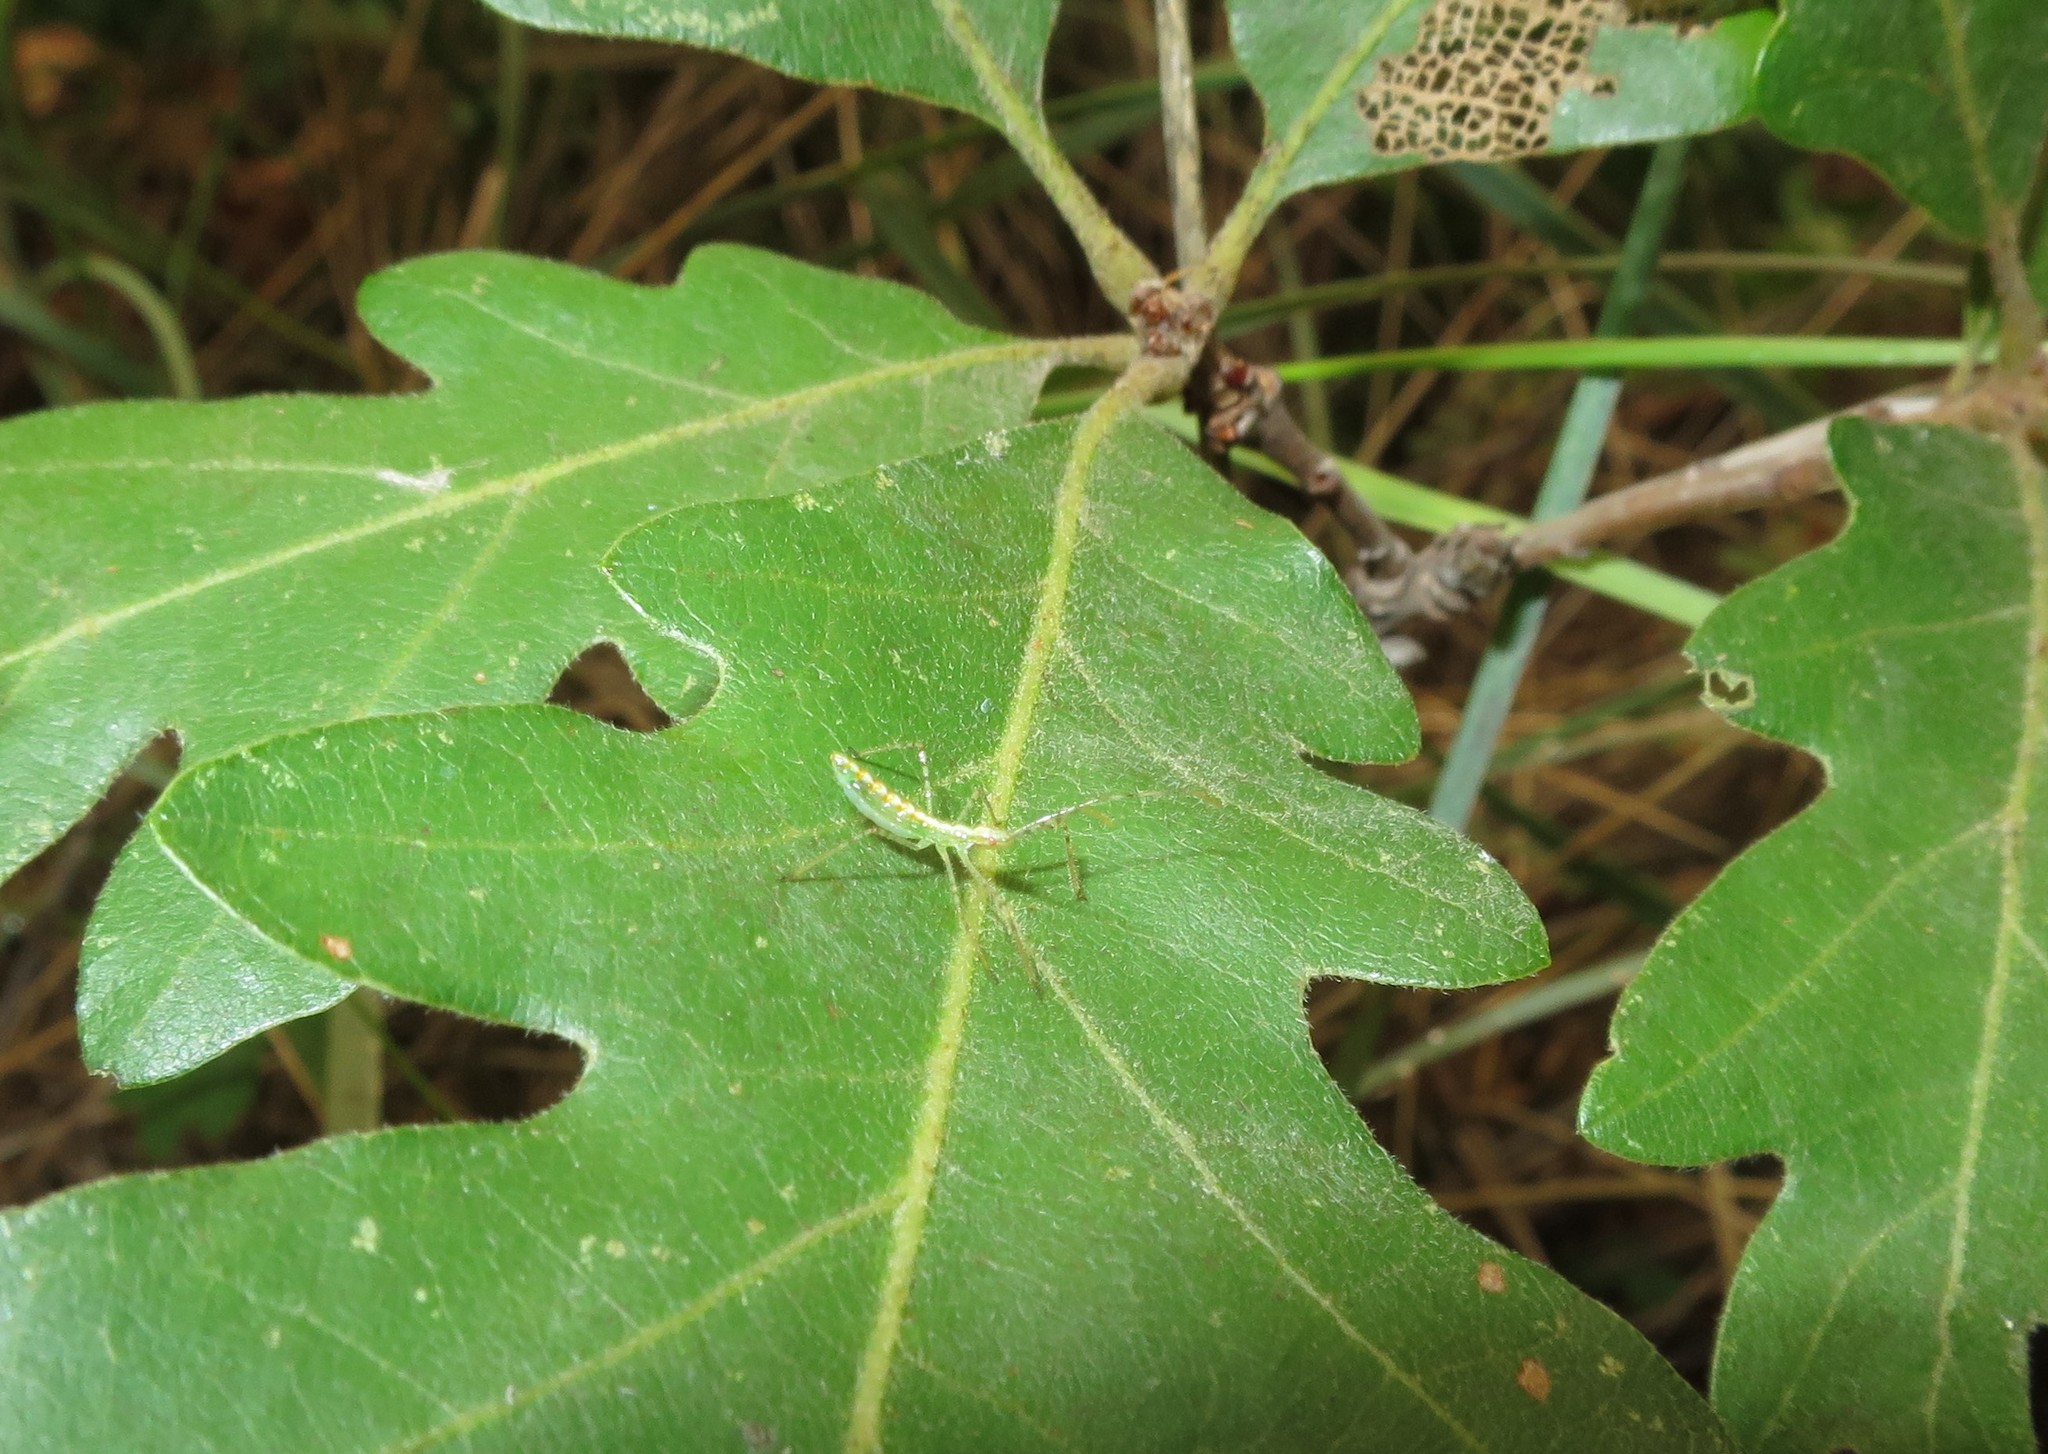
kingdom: Animalia
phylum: Arthropoda
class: Insecta
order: Hemiptera
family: Reduviidae
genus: Zelus
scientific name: Zelus luridus
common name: Pale green assassin bug
